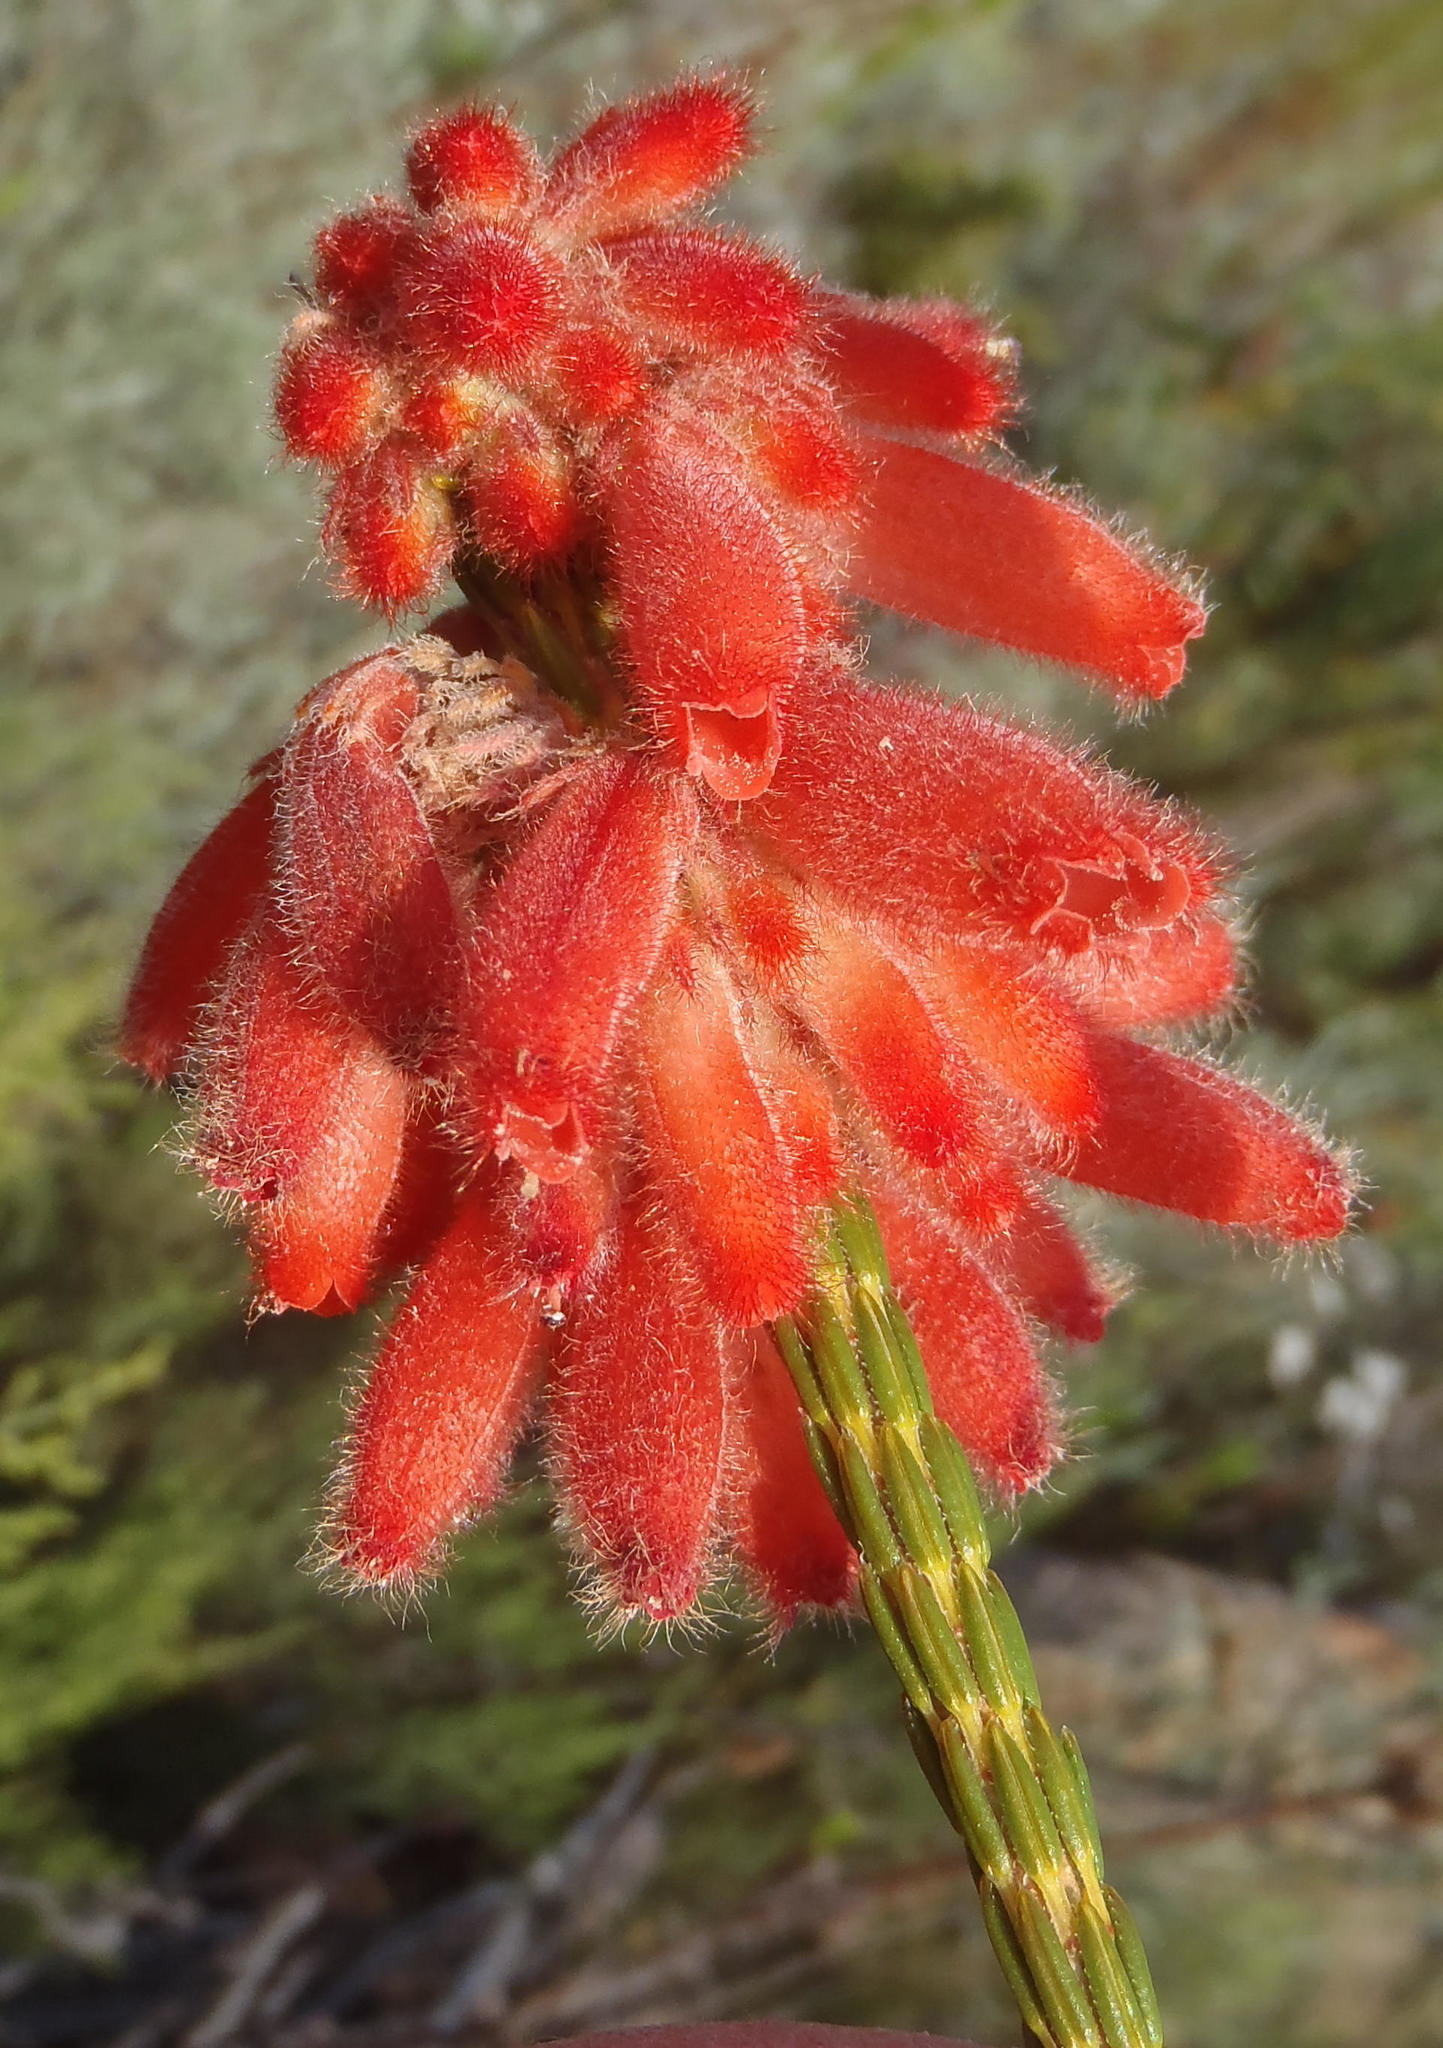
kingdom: Plantae
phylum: Tracheophyta
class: Magnoliopsida
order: Ericales
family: Ericaceae
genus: Erica
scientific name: Erica cerinthoides
